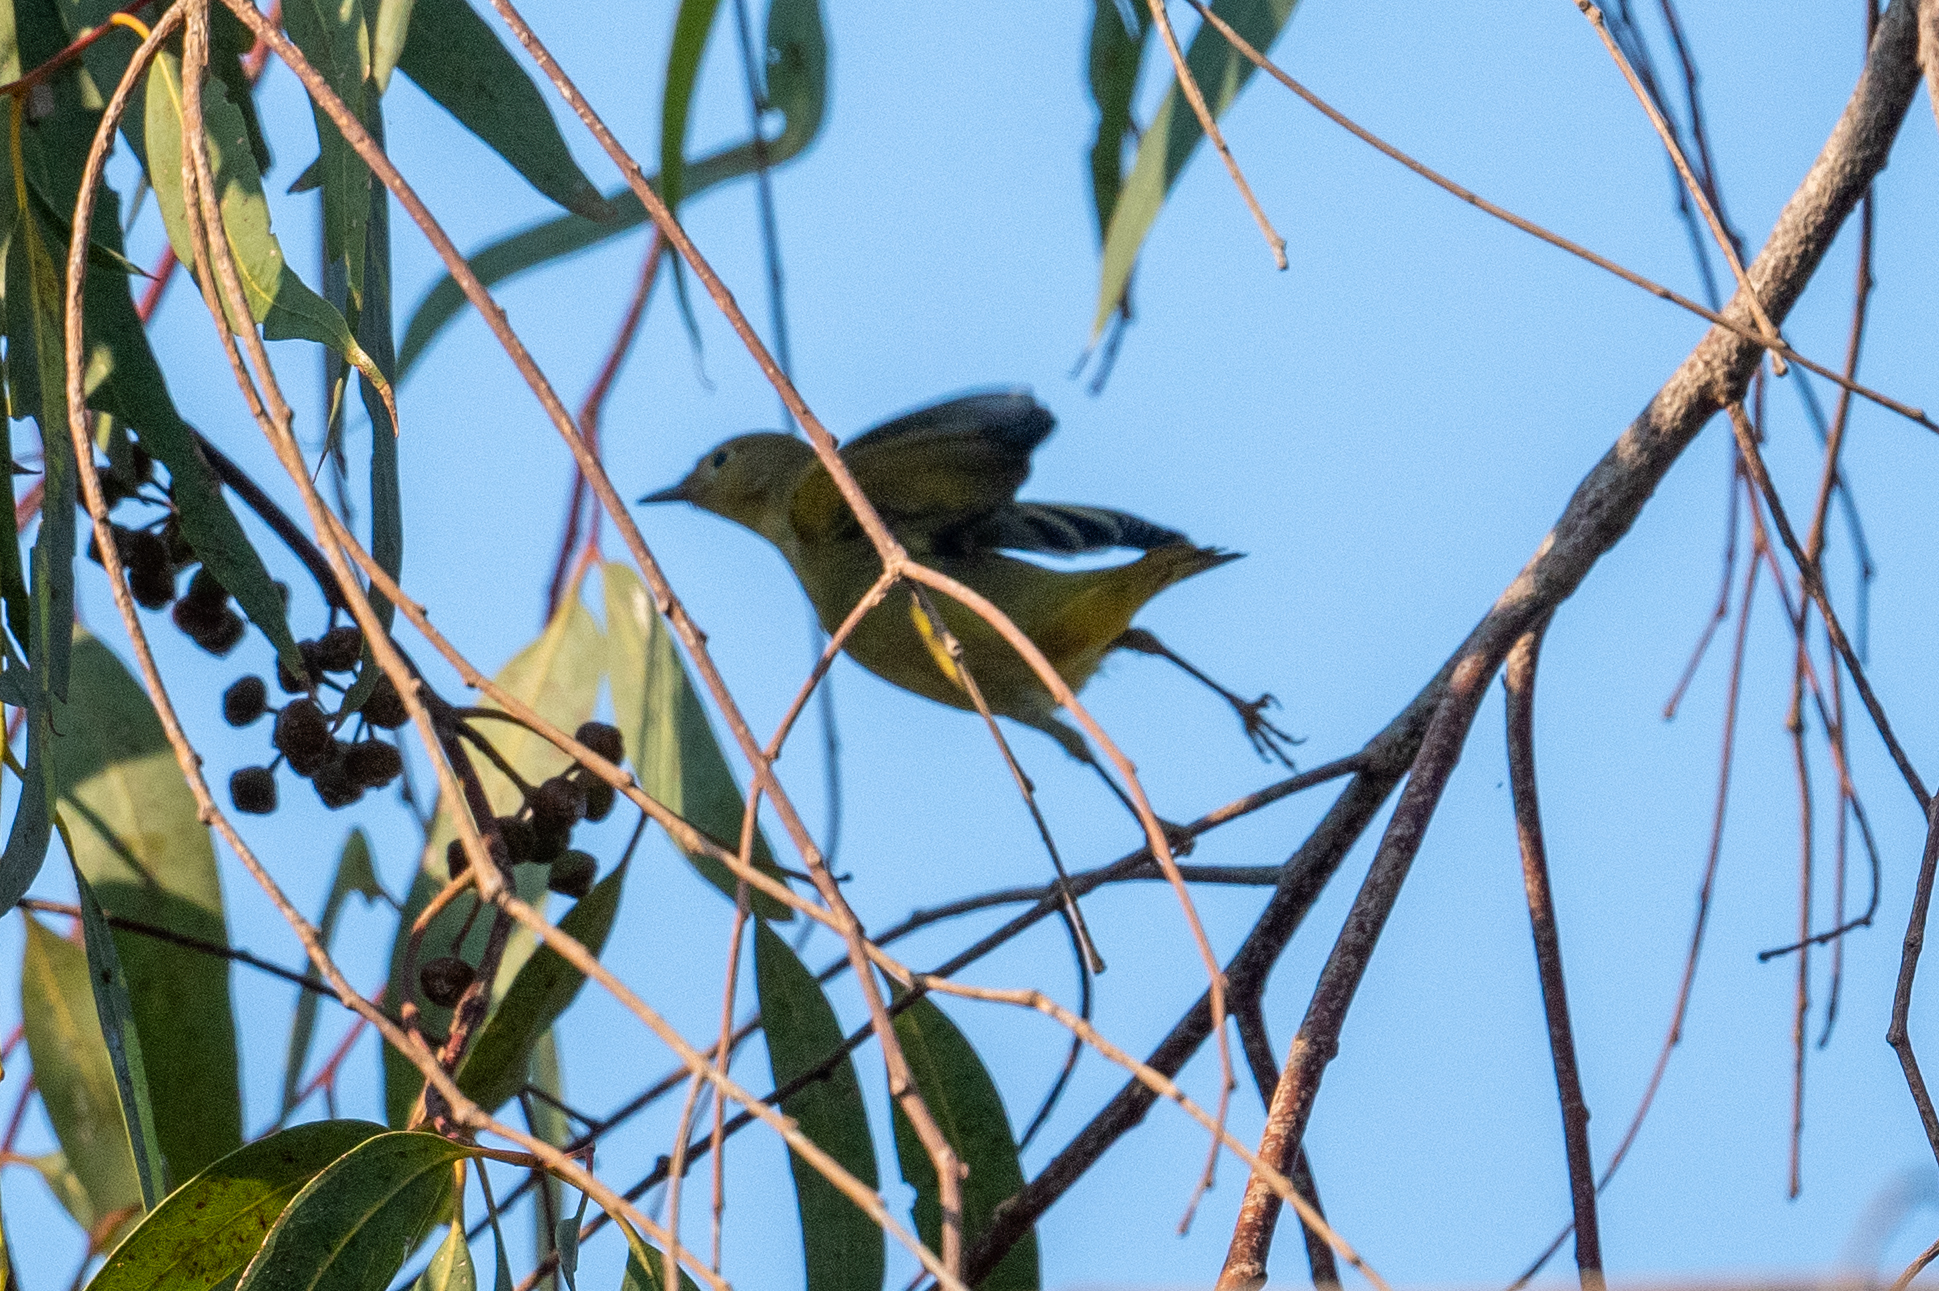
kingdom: Animalia
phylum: Chordata
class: Aves
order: Passeriformes
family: Parulidae
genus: Setophaga
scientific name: Setophaga petechia
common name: Yellow warbler
